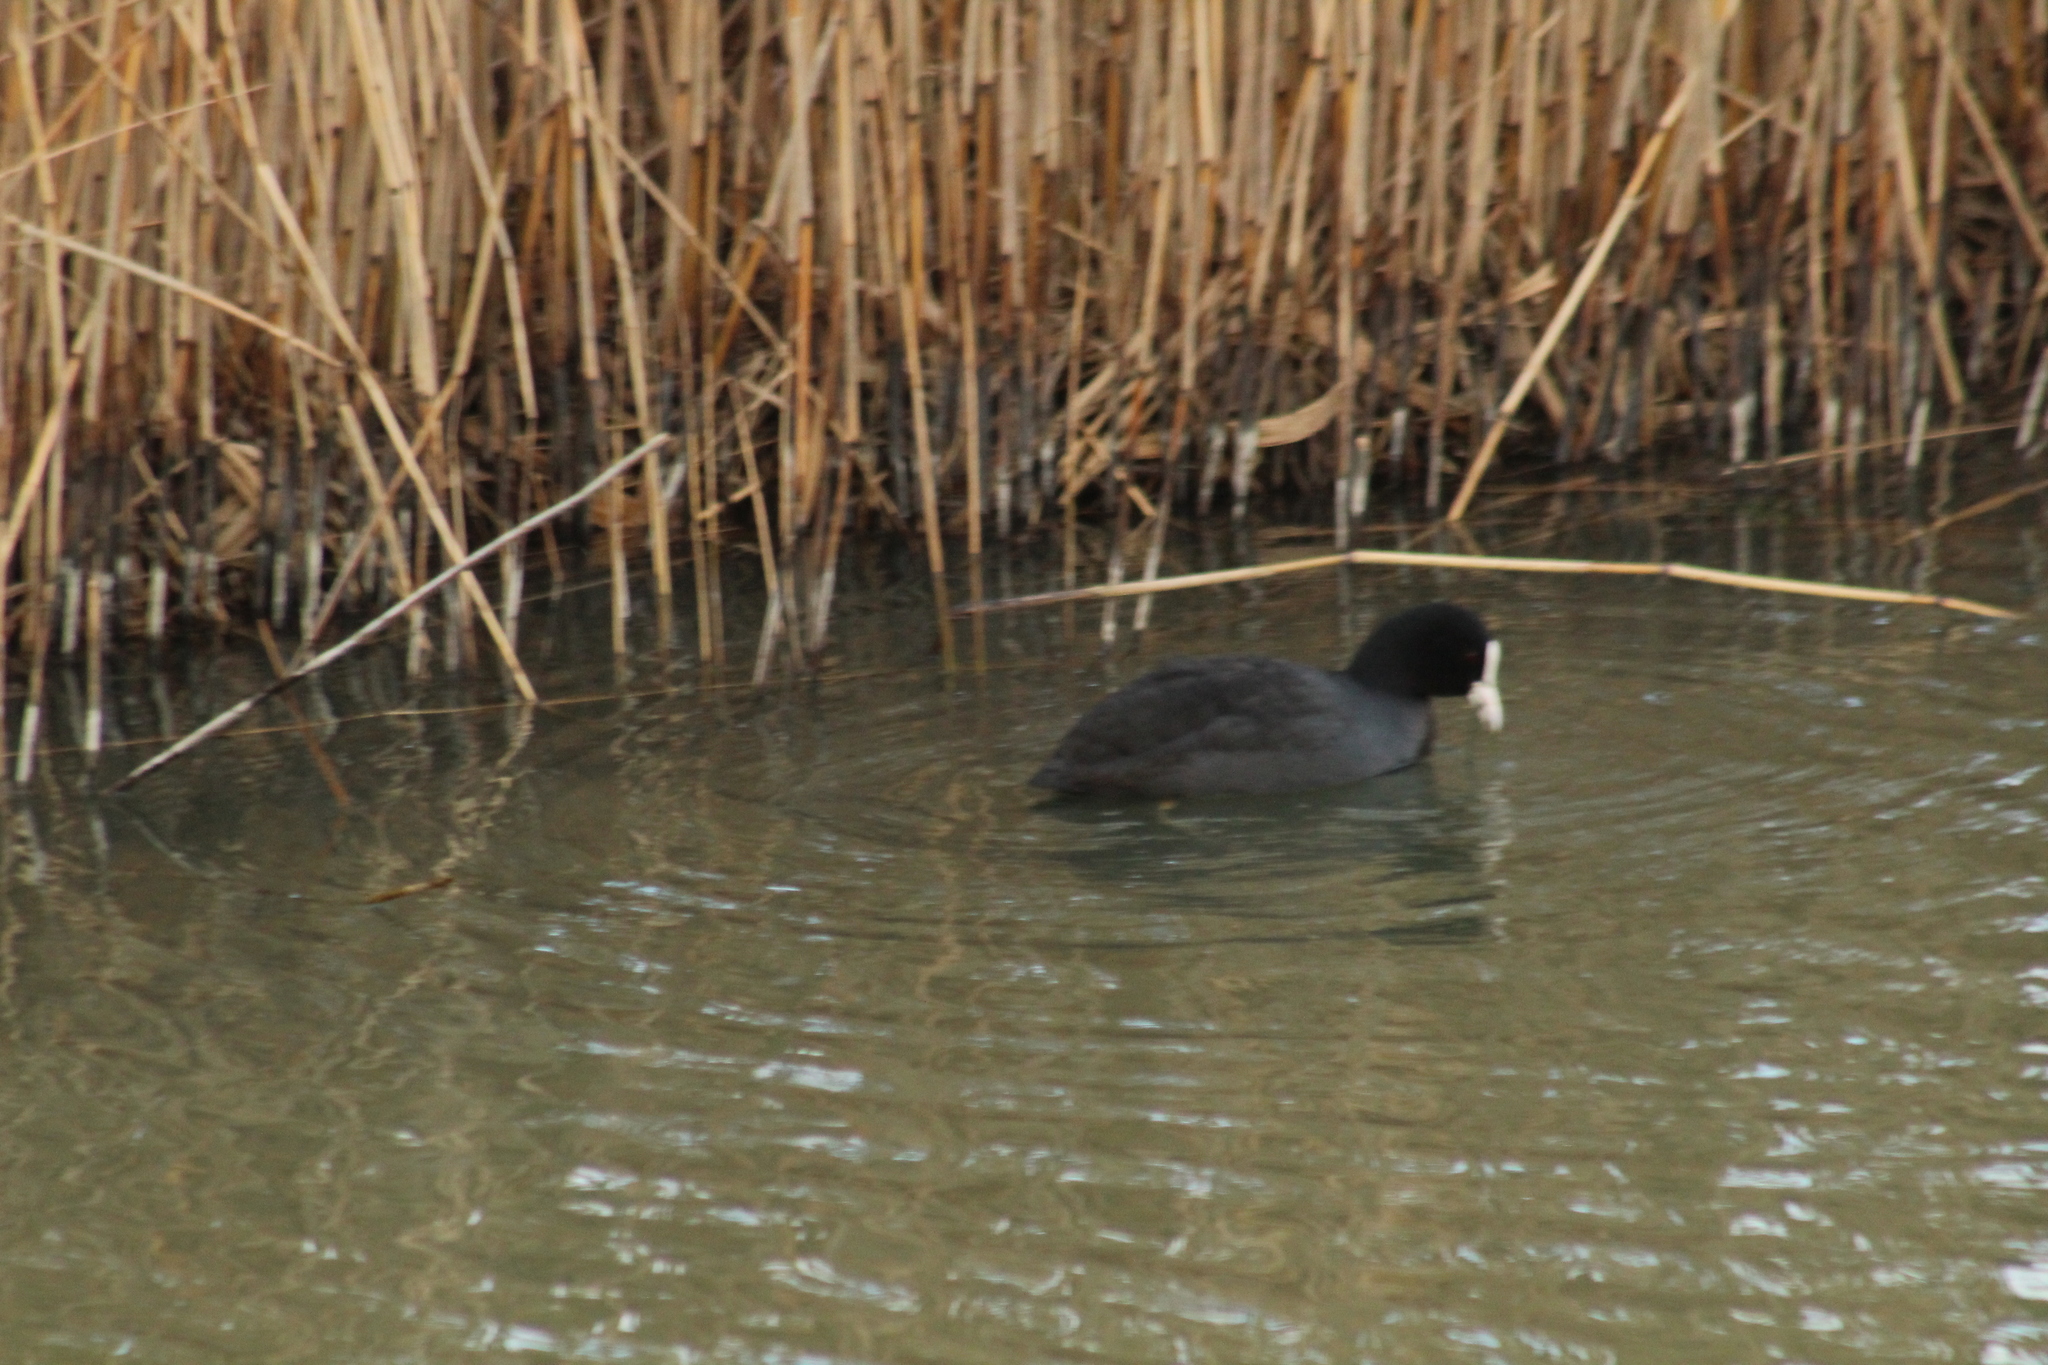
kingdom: Animalia
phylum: Chordata
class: Aves
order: Gruiformes
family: Rallidae
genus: Fulica
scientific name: Fulica atra
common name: Eurasian coot
